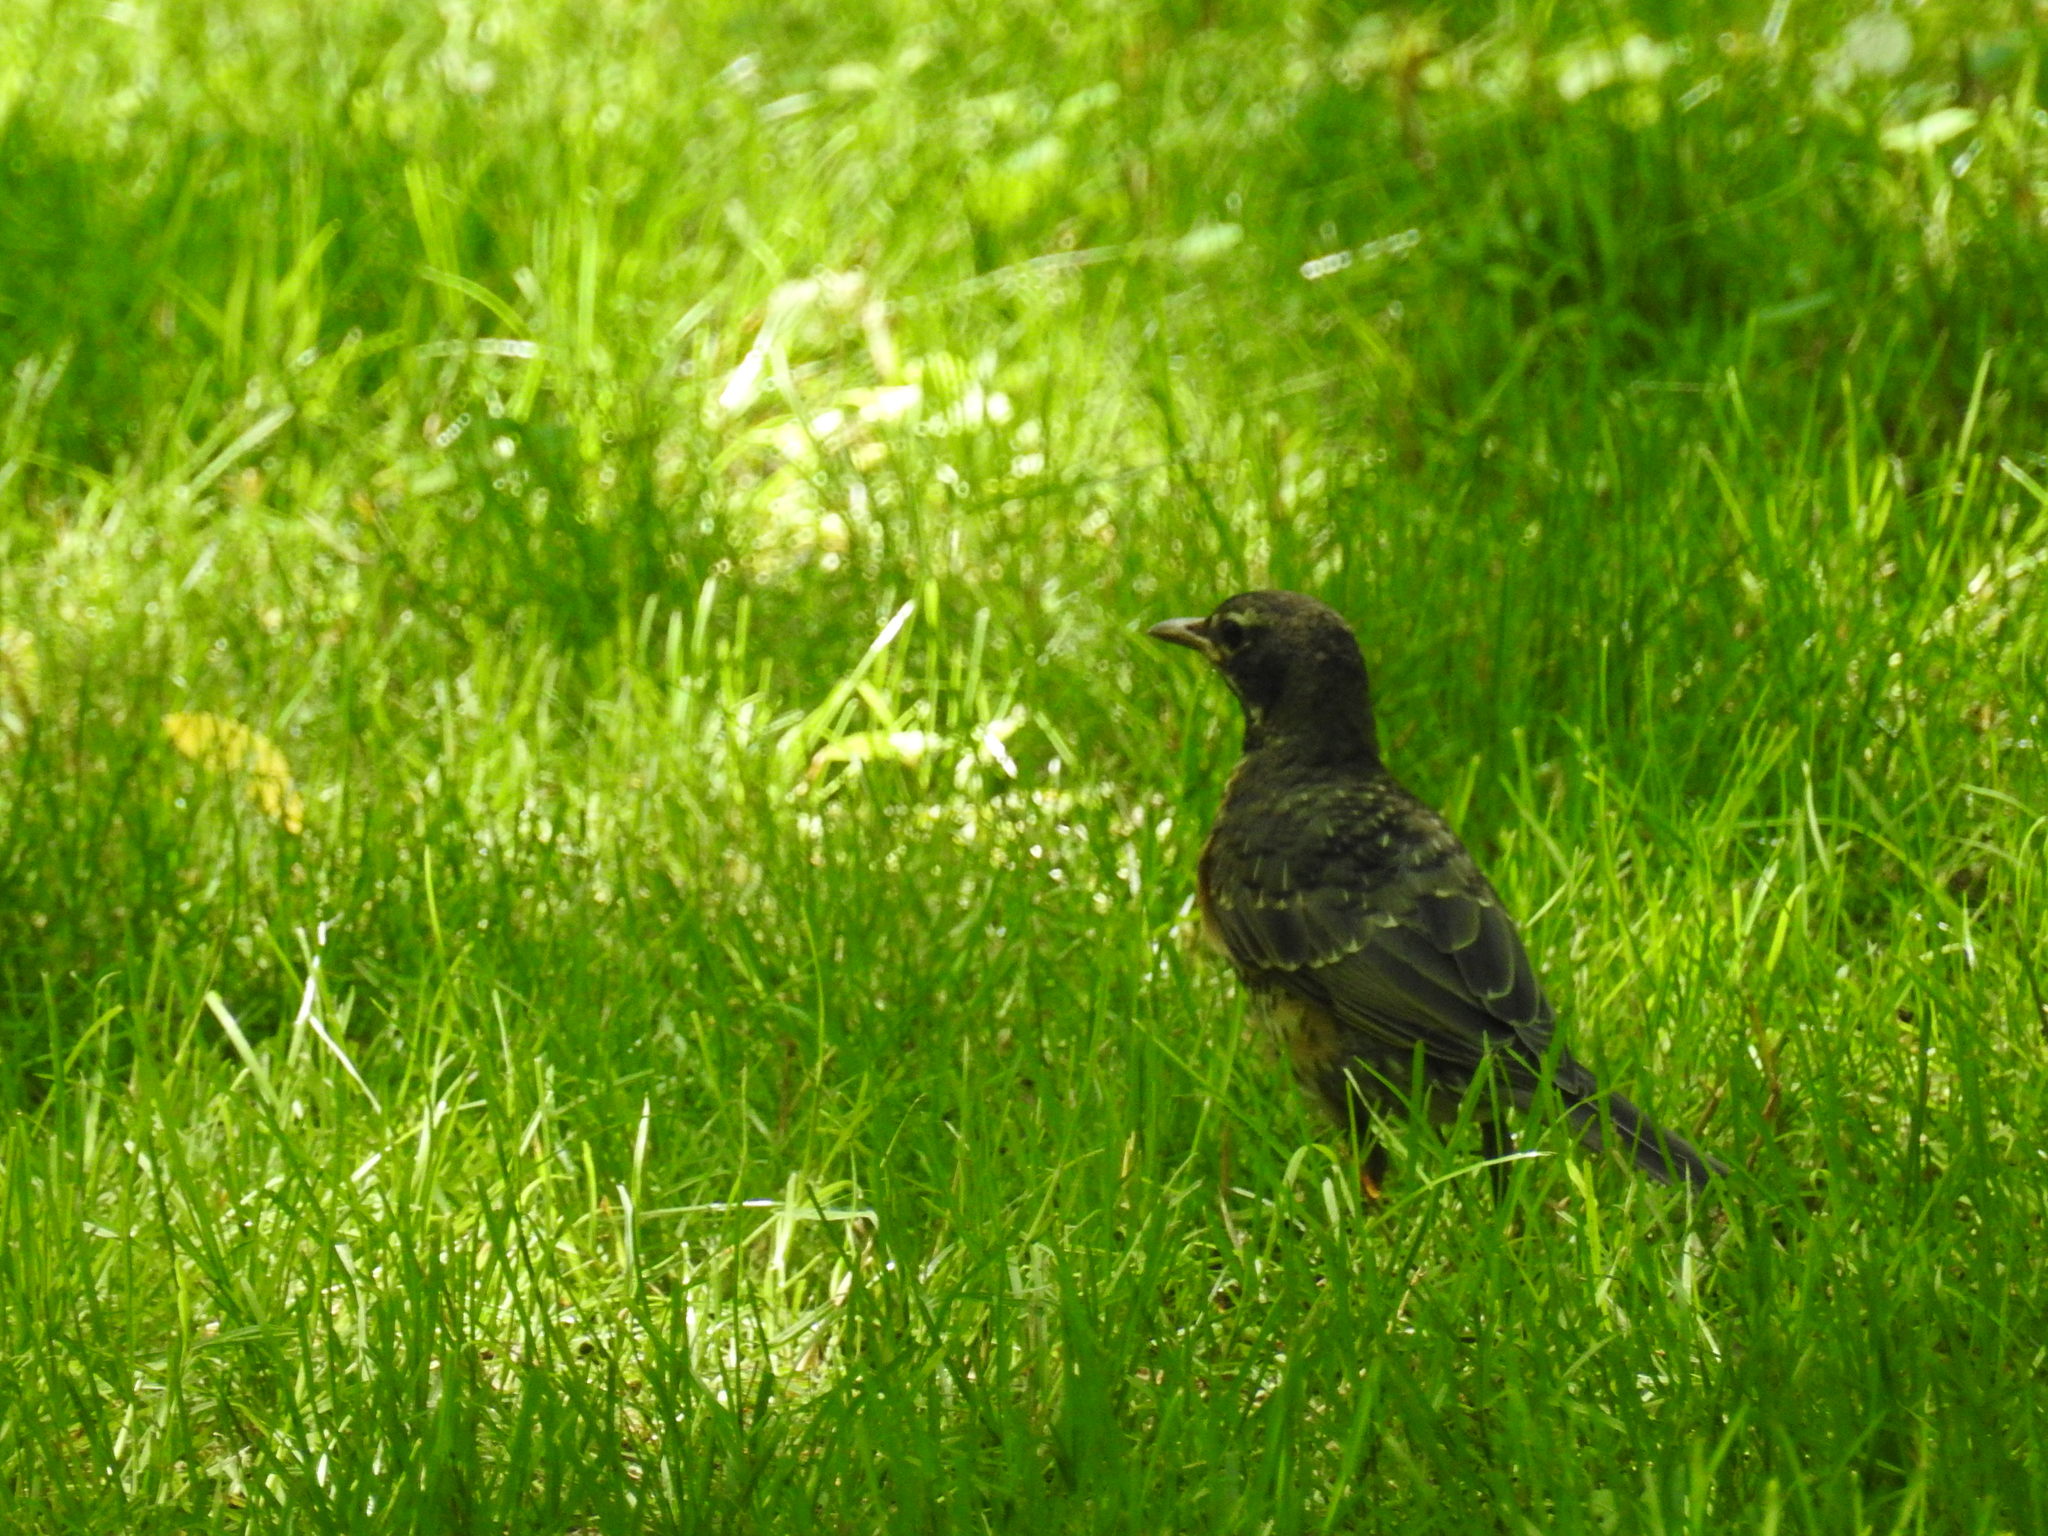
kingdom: Animalia
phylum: Chordata
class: Aves
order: Passeriformes
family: Turdidae
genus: Turdus
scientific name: Turdus migratorius
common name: American robin
